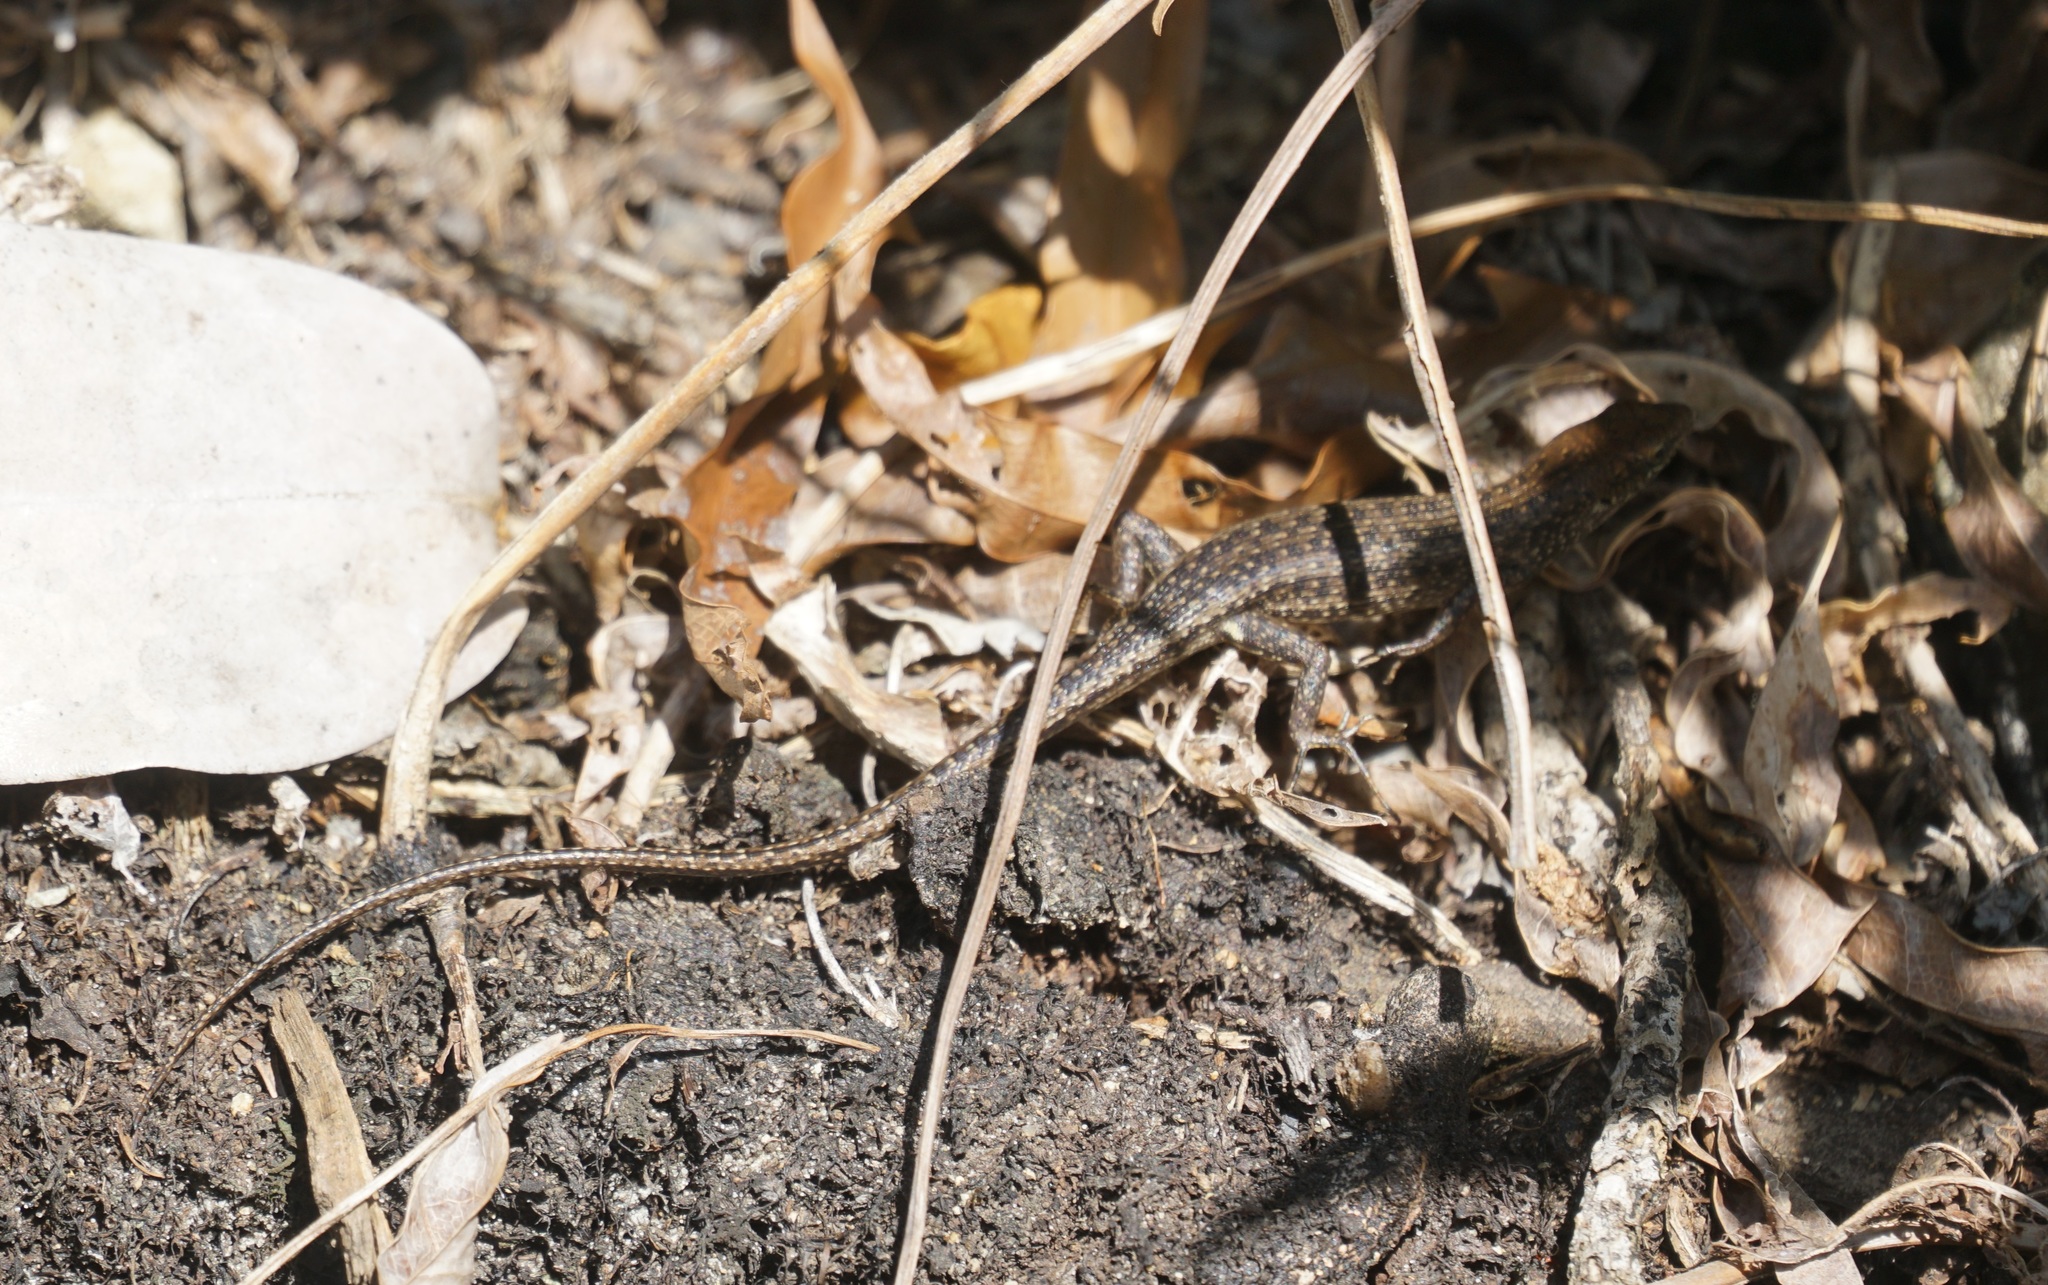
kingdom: Animalia
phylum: Chordata
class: Squamata
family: Scincidae
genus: Carlia
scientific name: Carlia inconnexa
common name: Whitsunday rainbow skink
